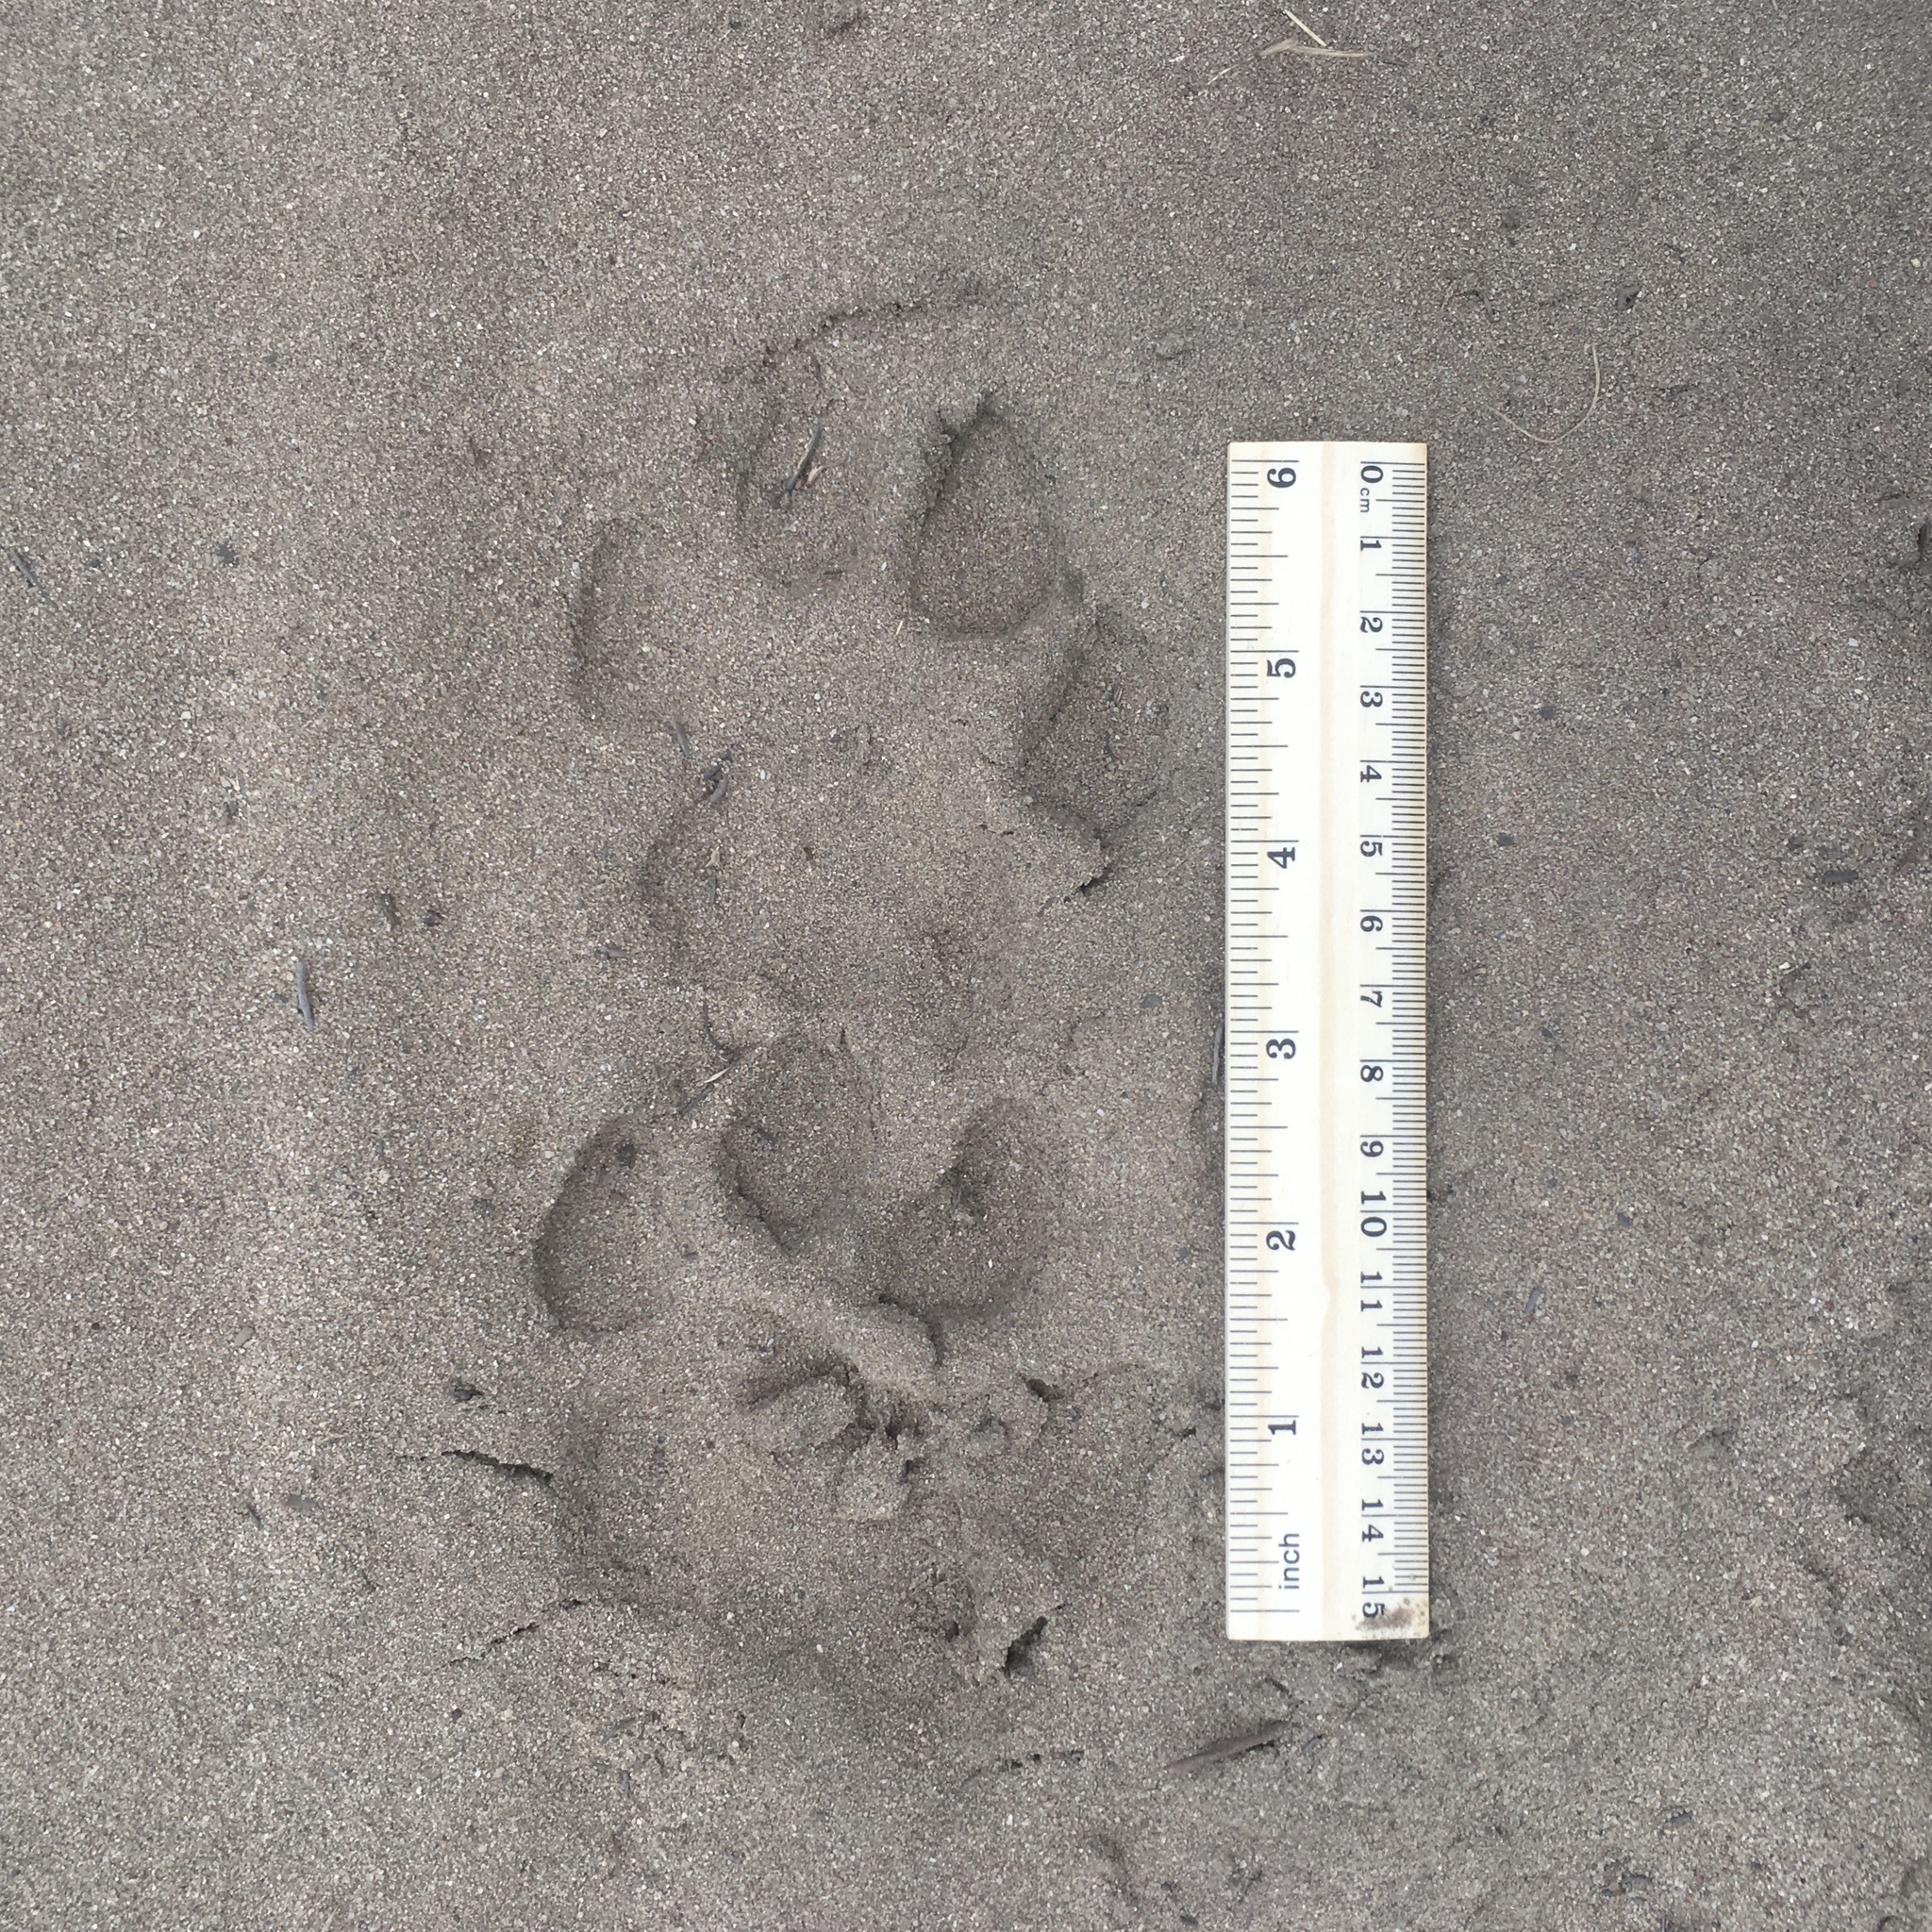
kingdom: Animalia
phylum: Chordata
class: Mammalia
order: Carnivora
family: Felidae
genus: Puma
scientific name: Puma concolor
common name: Puma
